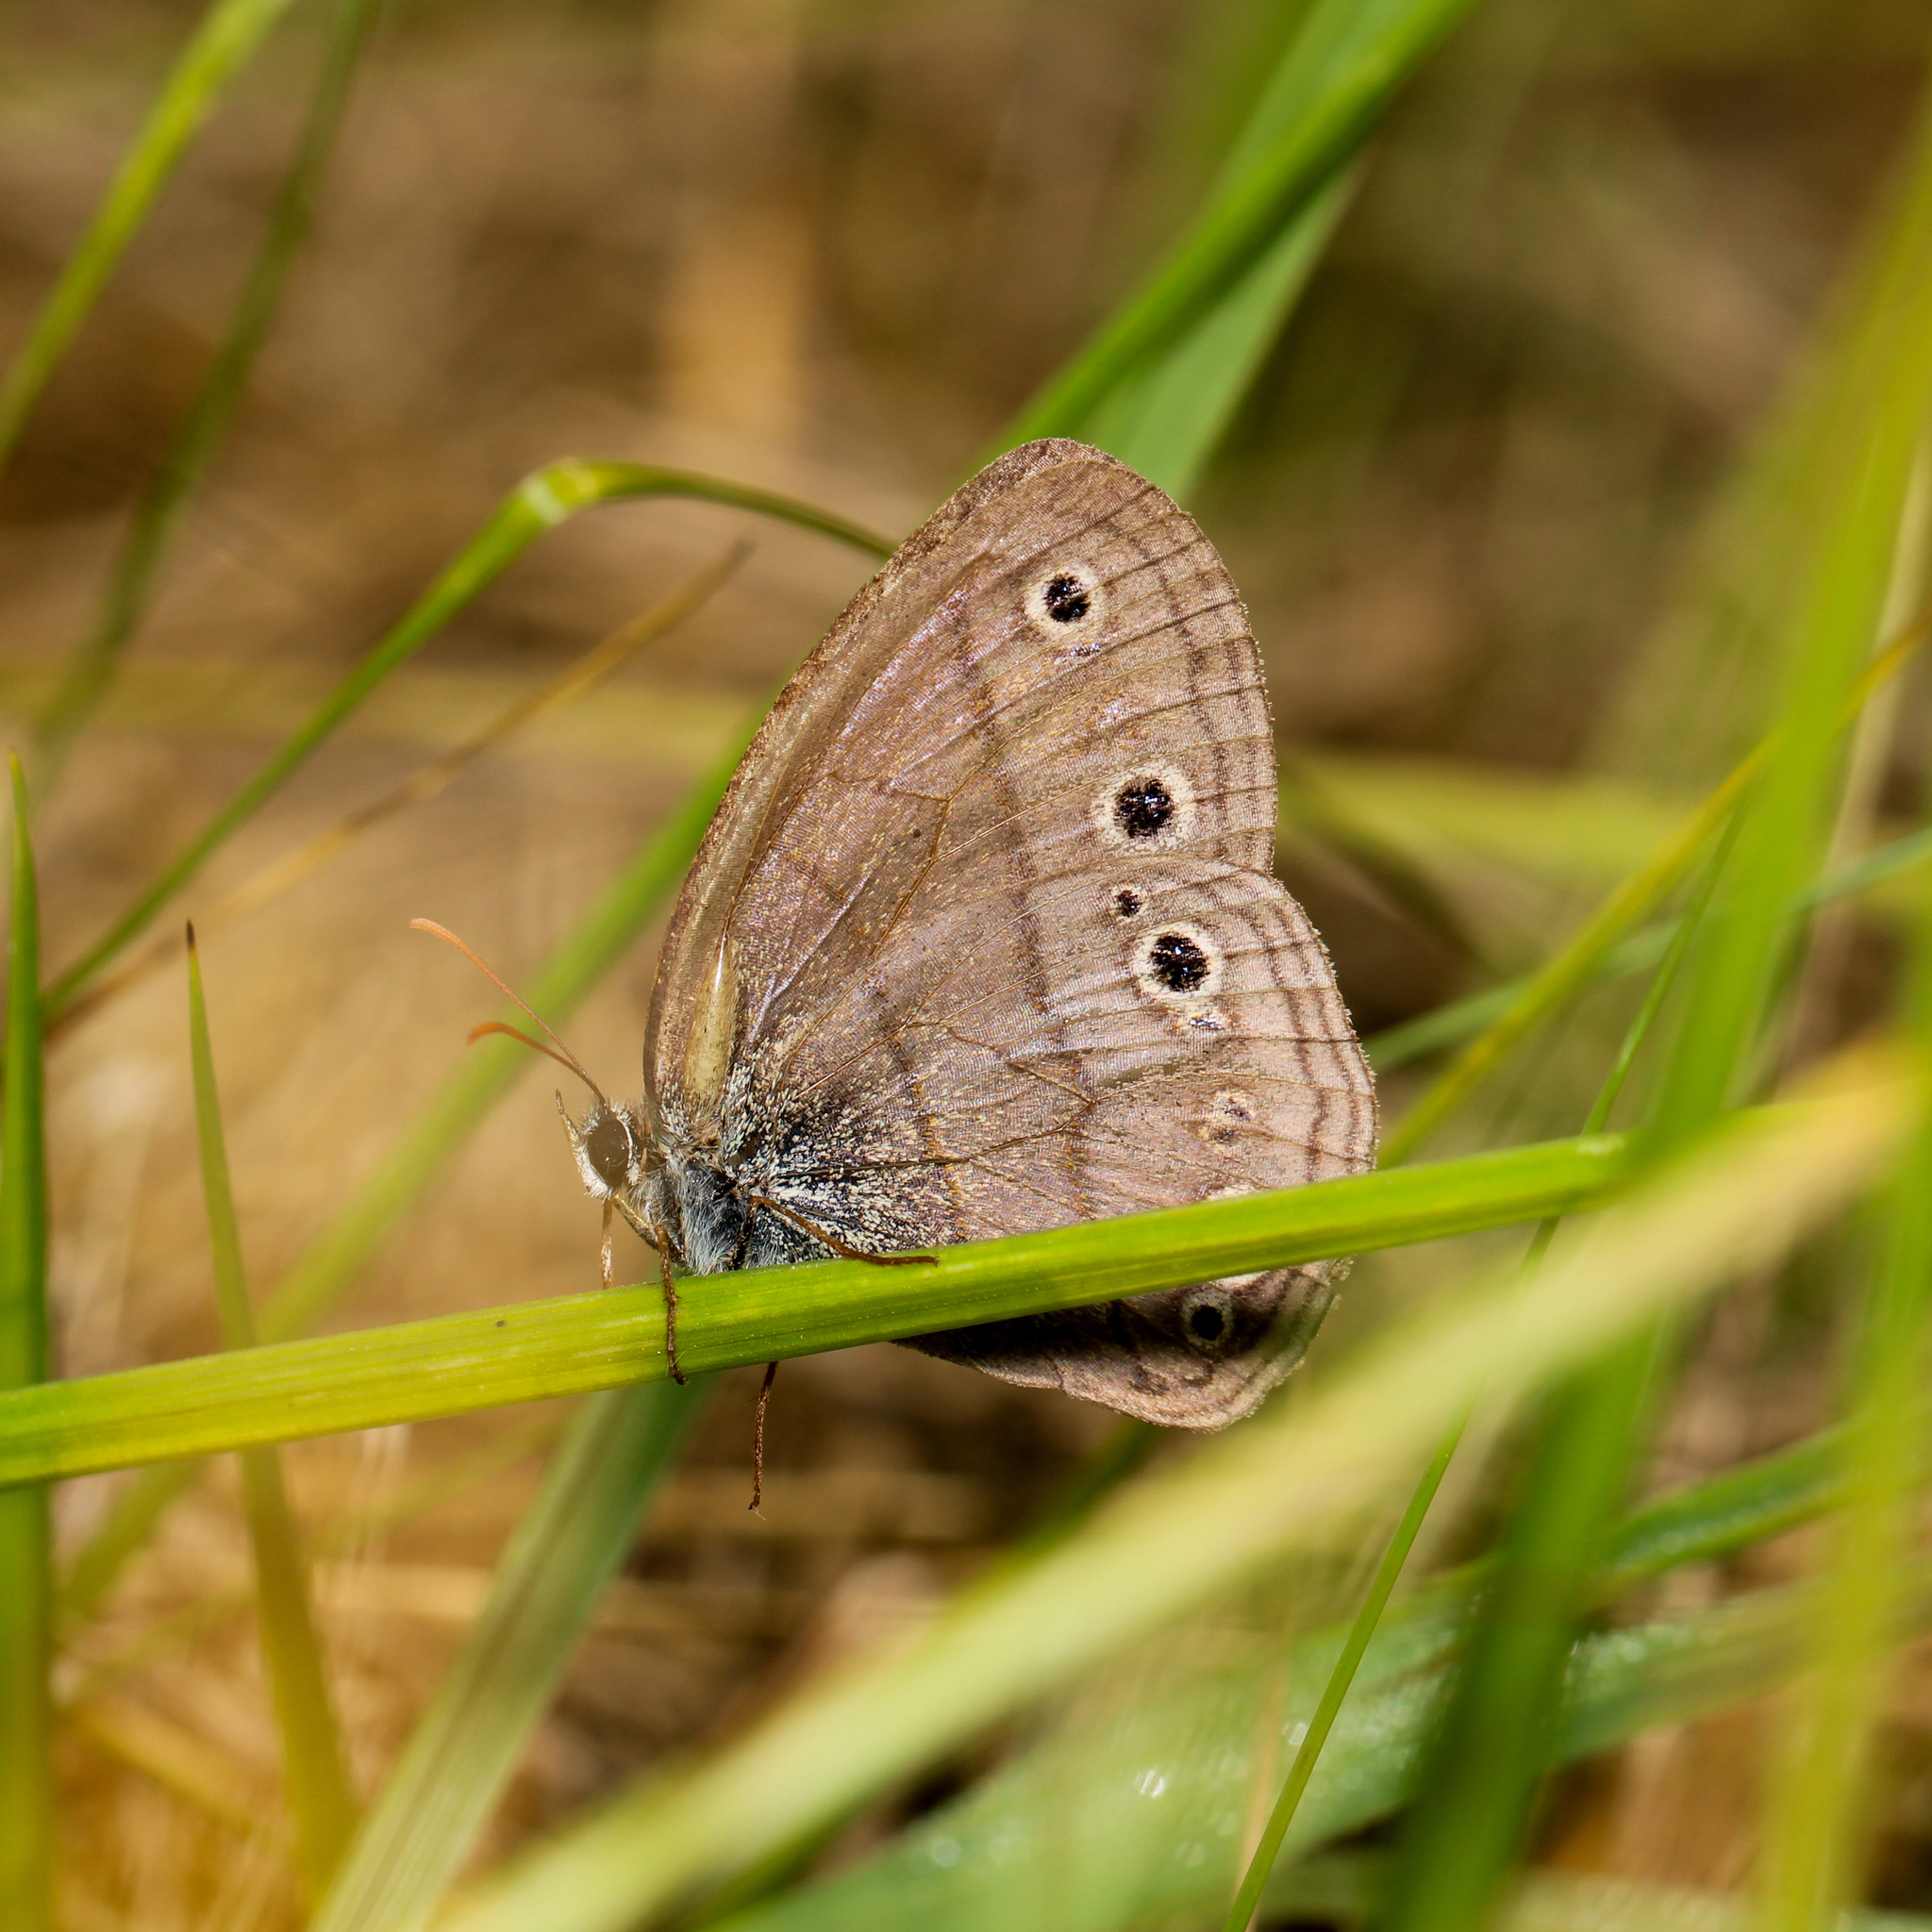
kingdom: Animalia
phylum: Arthropoda
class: Insecta
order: Lepidoptera
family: Nymphalidae
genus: Euptychia
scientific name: Euptychia cymela
